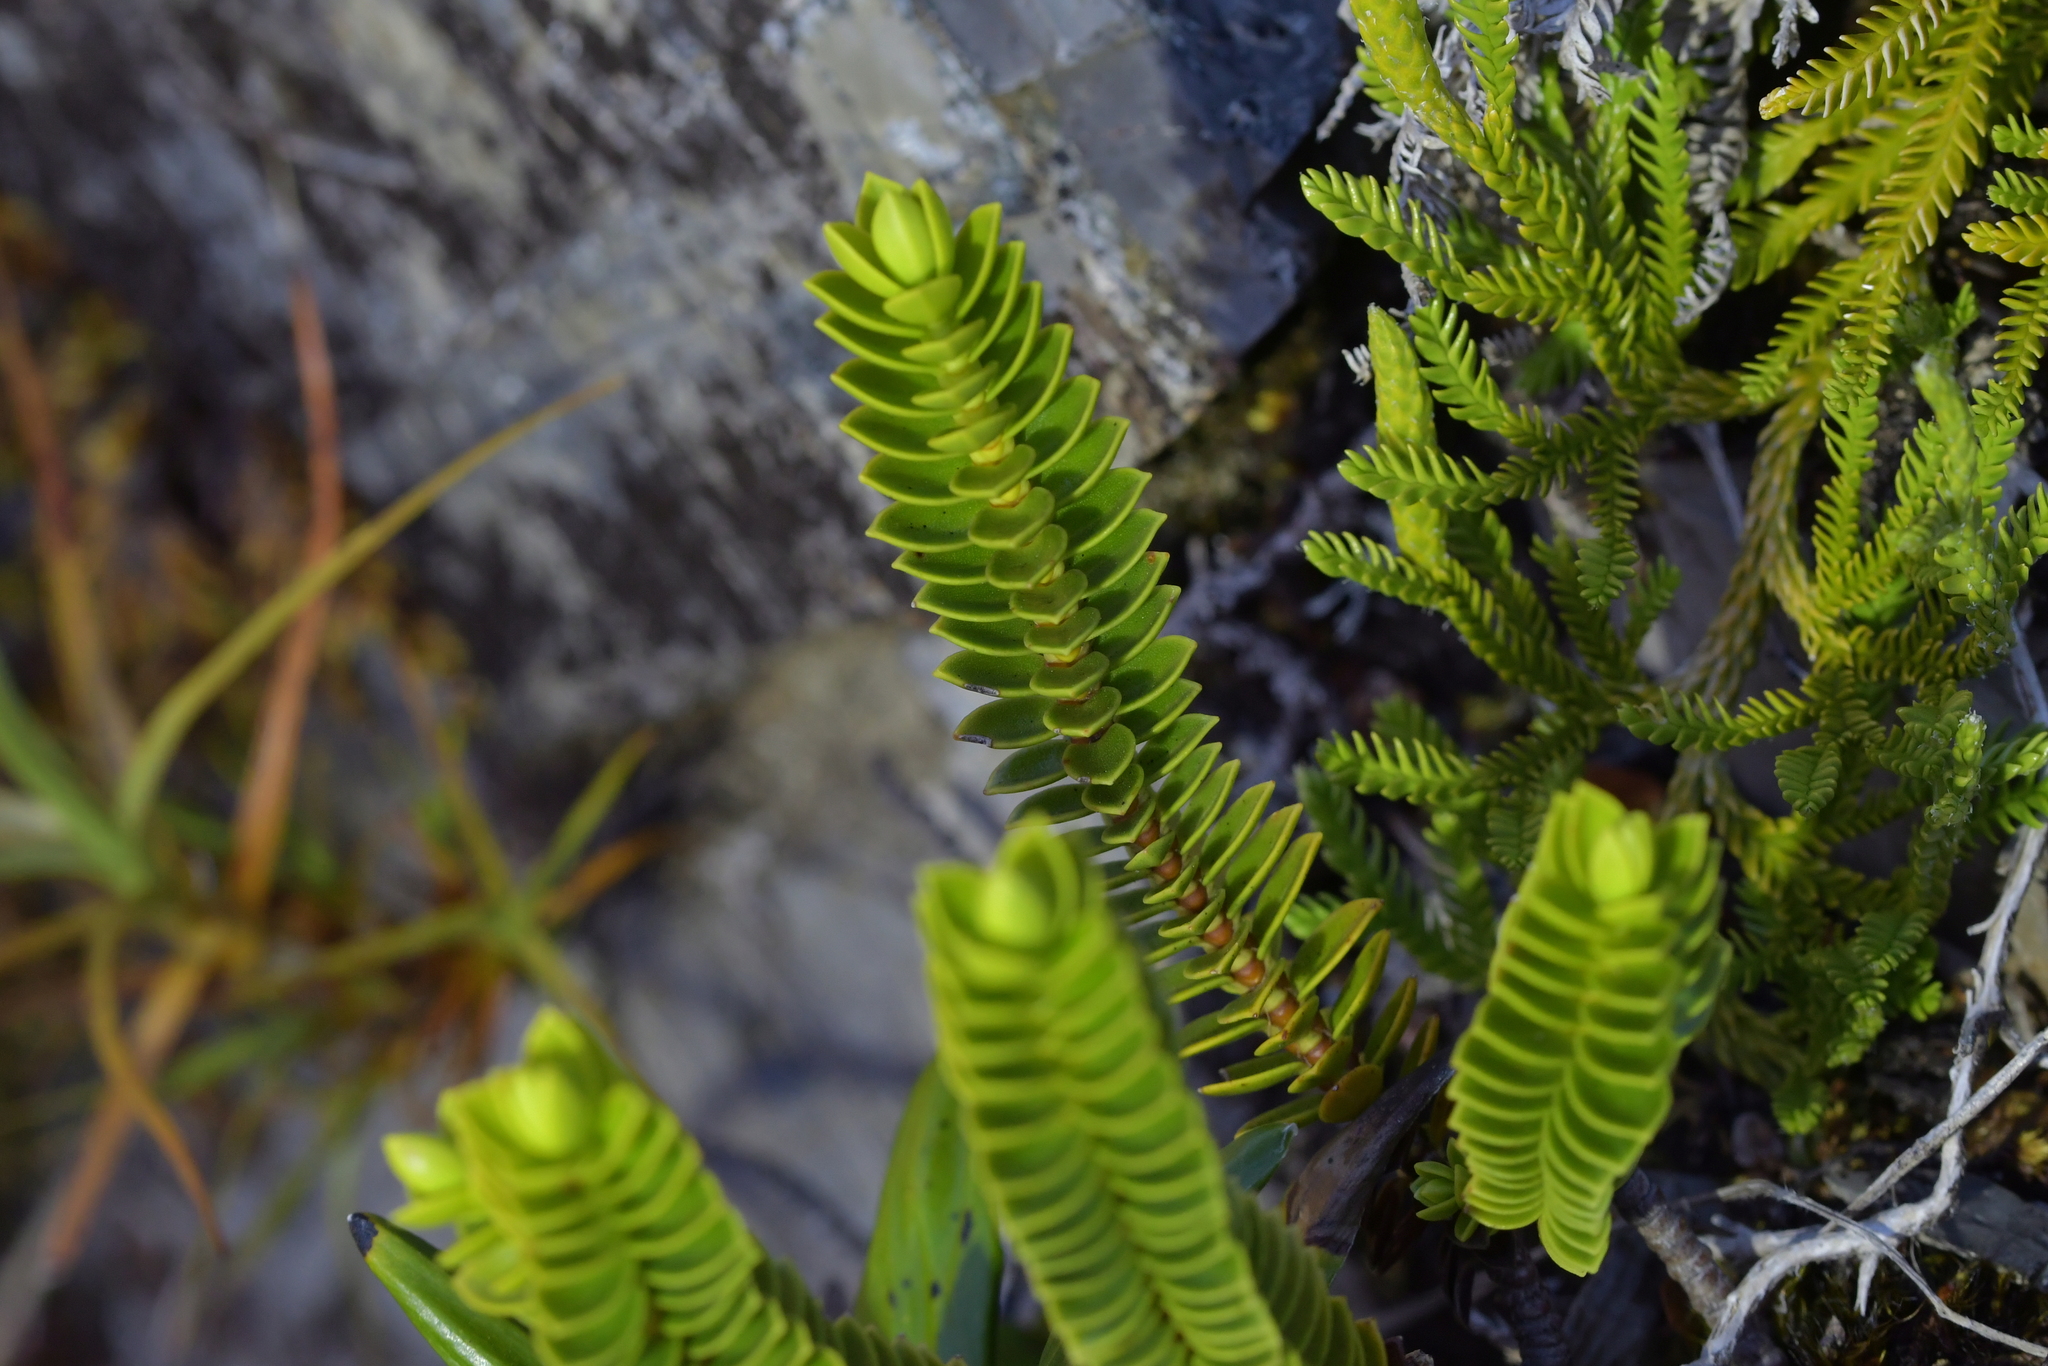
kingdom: Plantae
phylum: Tracheophyta
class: Magnoliopsida
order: Lamiales
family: Plantaginaceae
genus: Veronica
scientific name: Veronica odora
